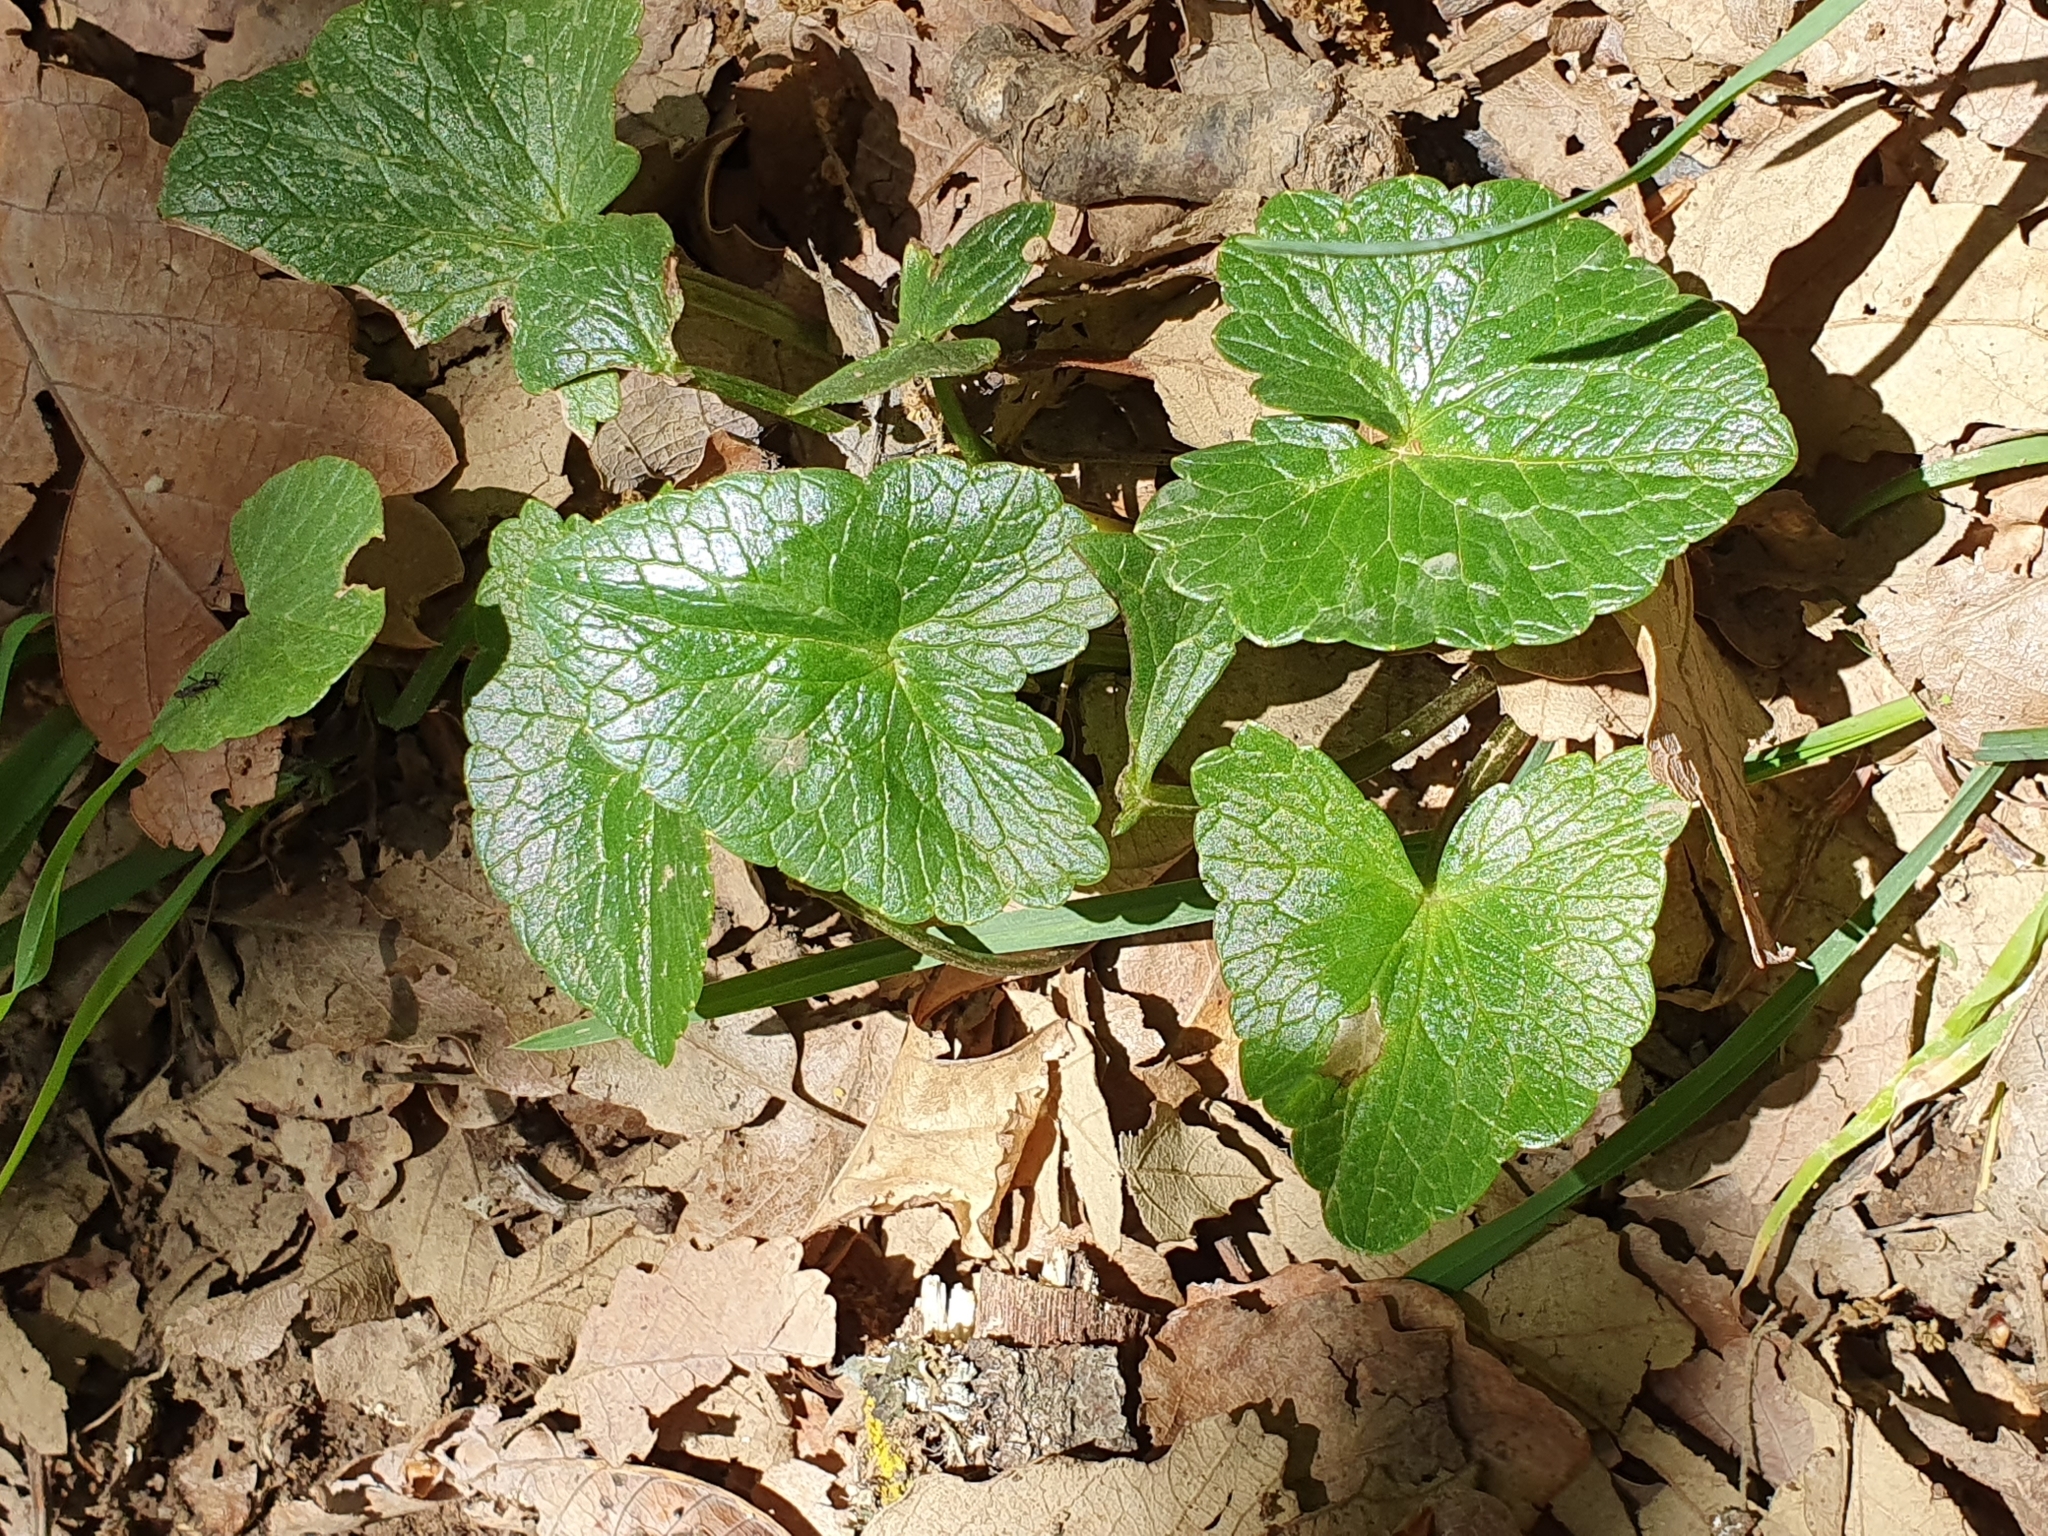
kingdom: Plantae
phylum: Tracheophyta
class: Magnoliopsida
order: Ranunculales
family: Ranunculaceae
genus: Ficaria
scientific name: Ficaria verna
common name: Lesser celandine
